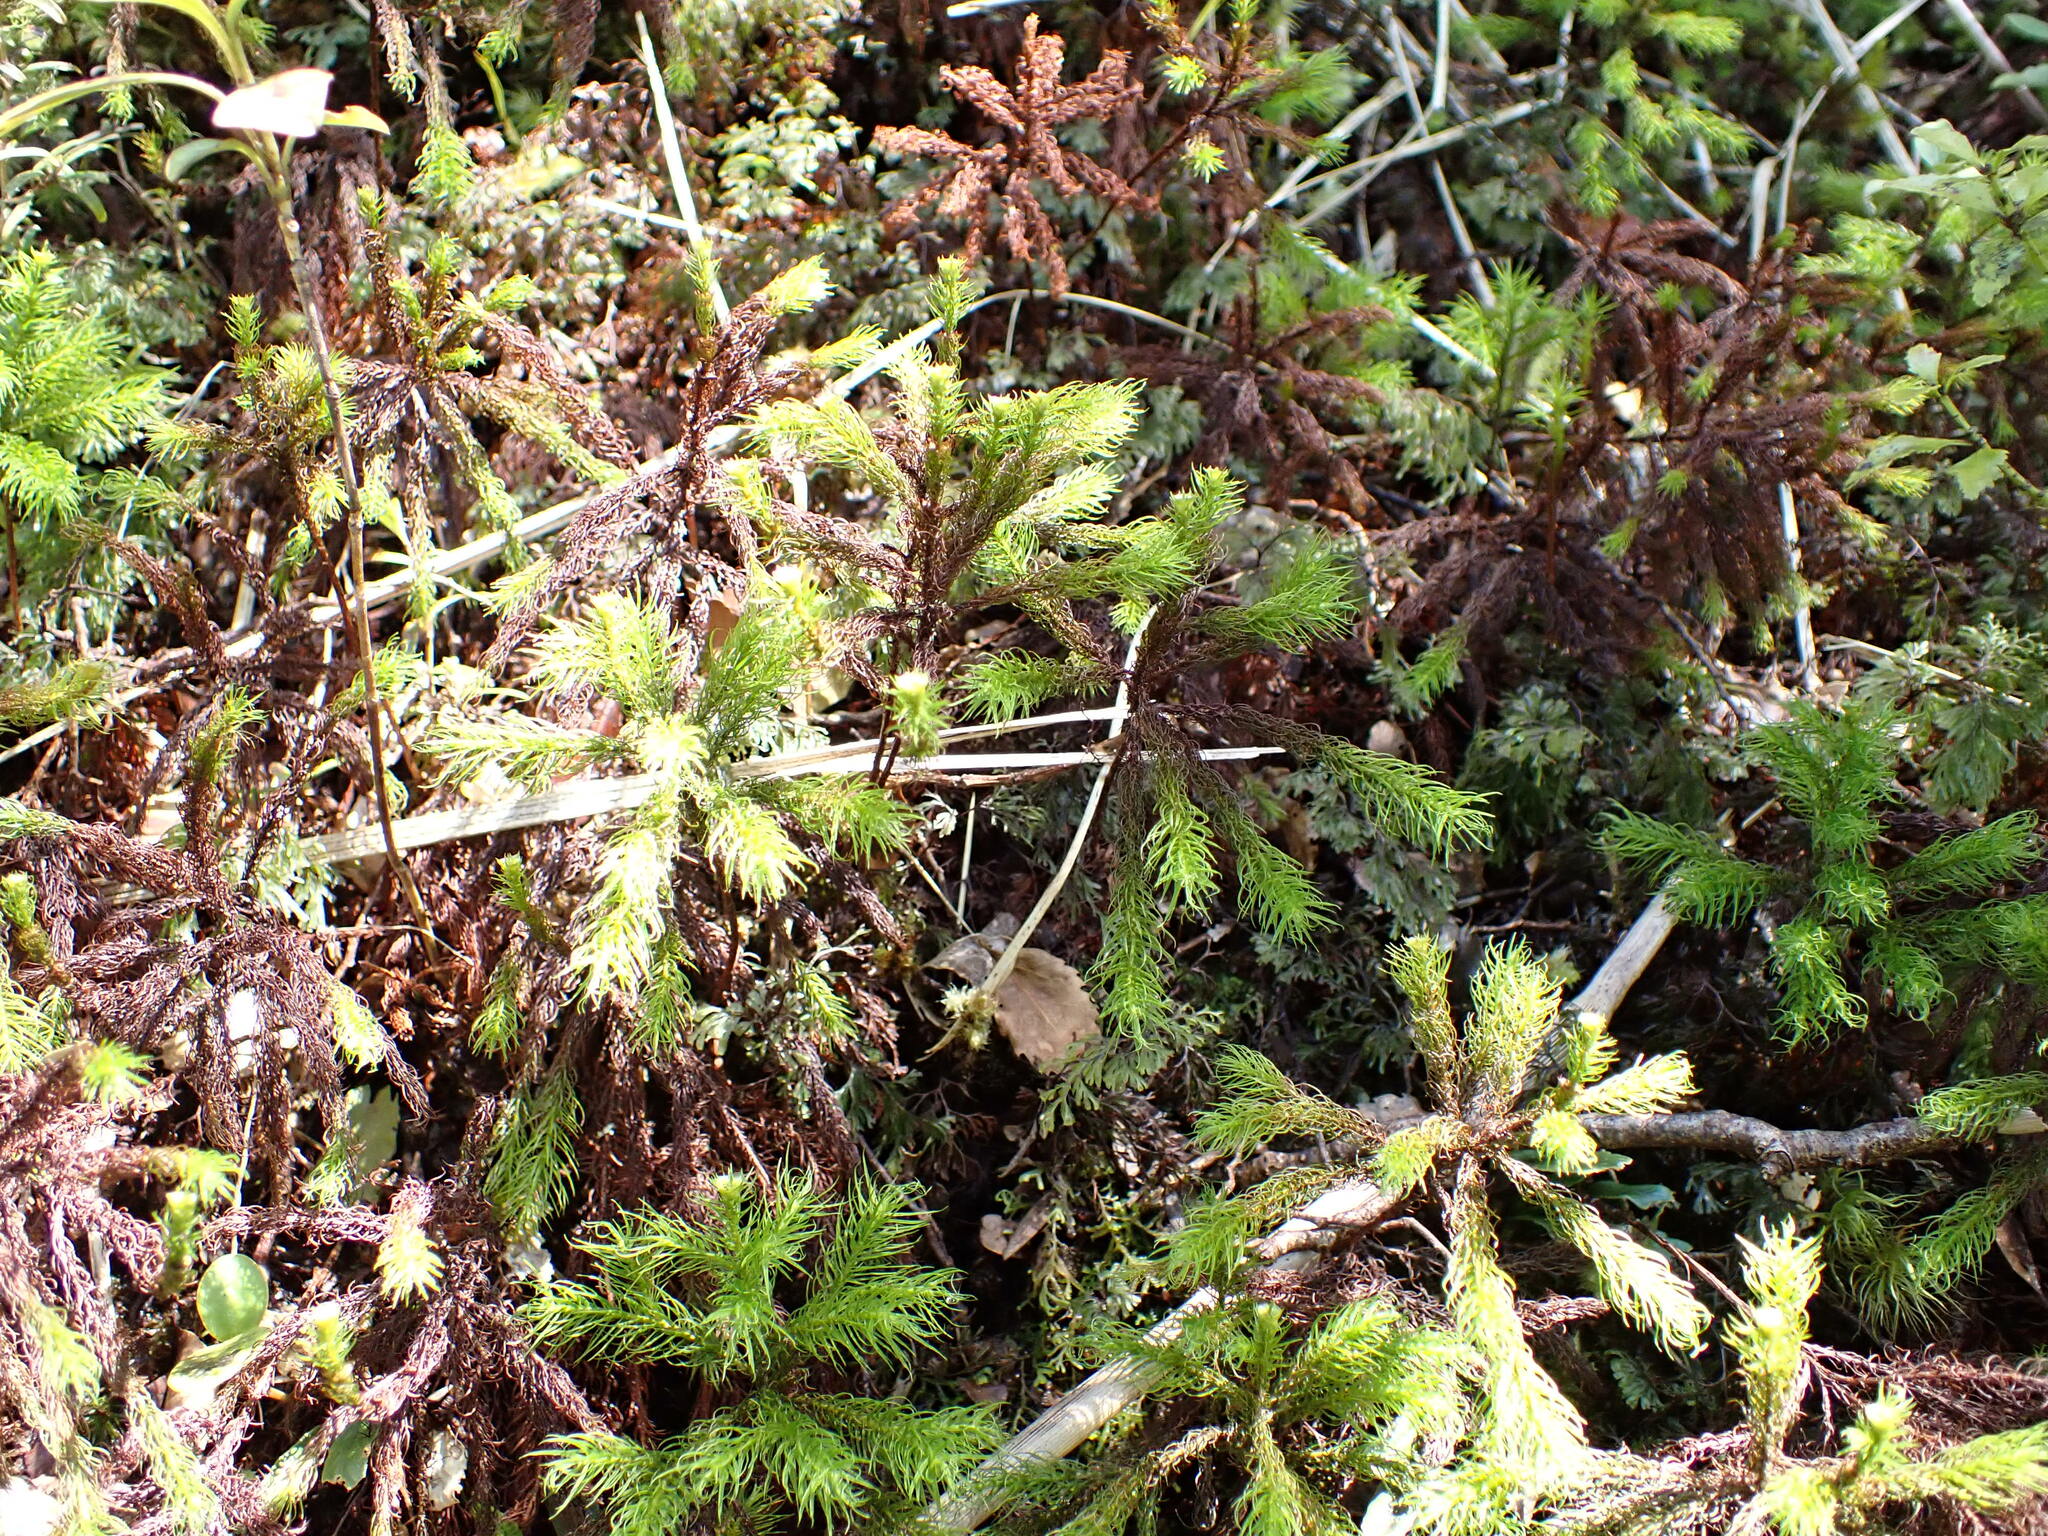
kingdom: Plantae
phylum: Bryophyta
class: Polytrichopsida
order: Polytrichales
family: Polytrichaceae
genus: Dendroligotrichum
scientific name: Dendroligotrichum tongariroense
